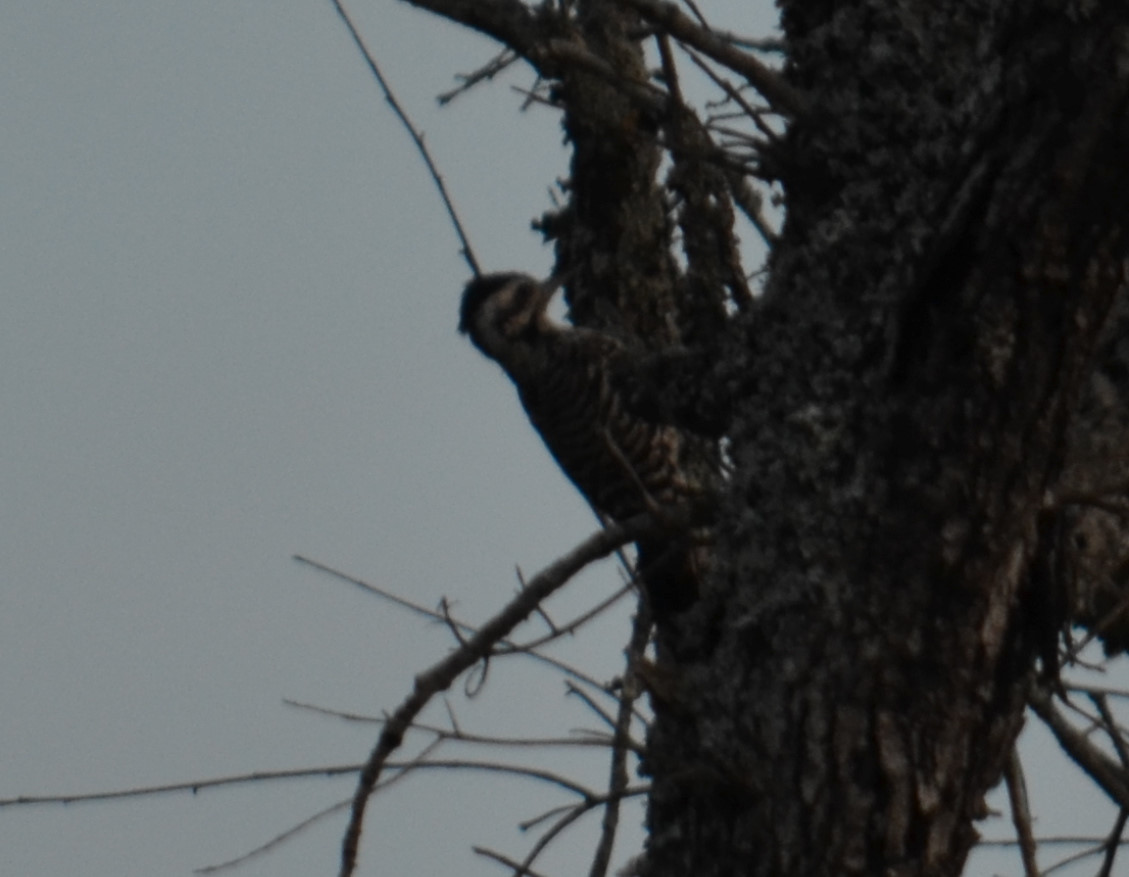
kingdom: Animalia
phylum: Chordata
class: Aves
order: Piciformes
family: Picidae
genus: Dryobates
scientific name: Dryobates scalaris
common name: Ladder-backed woodpecker
